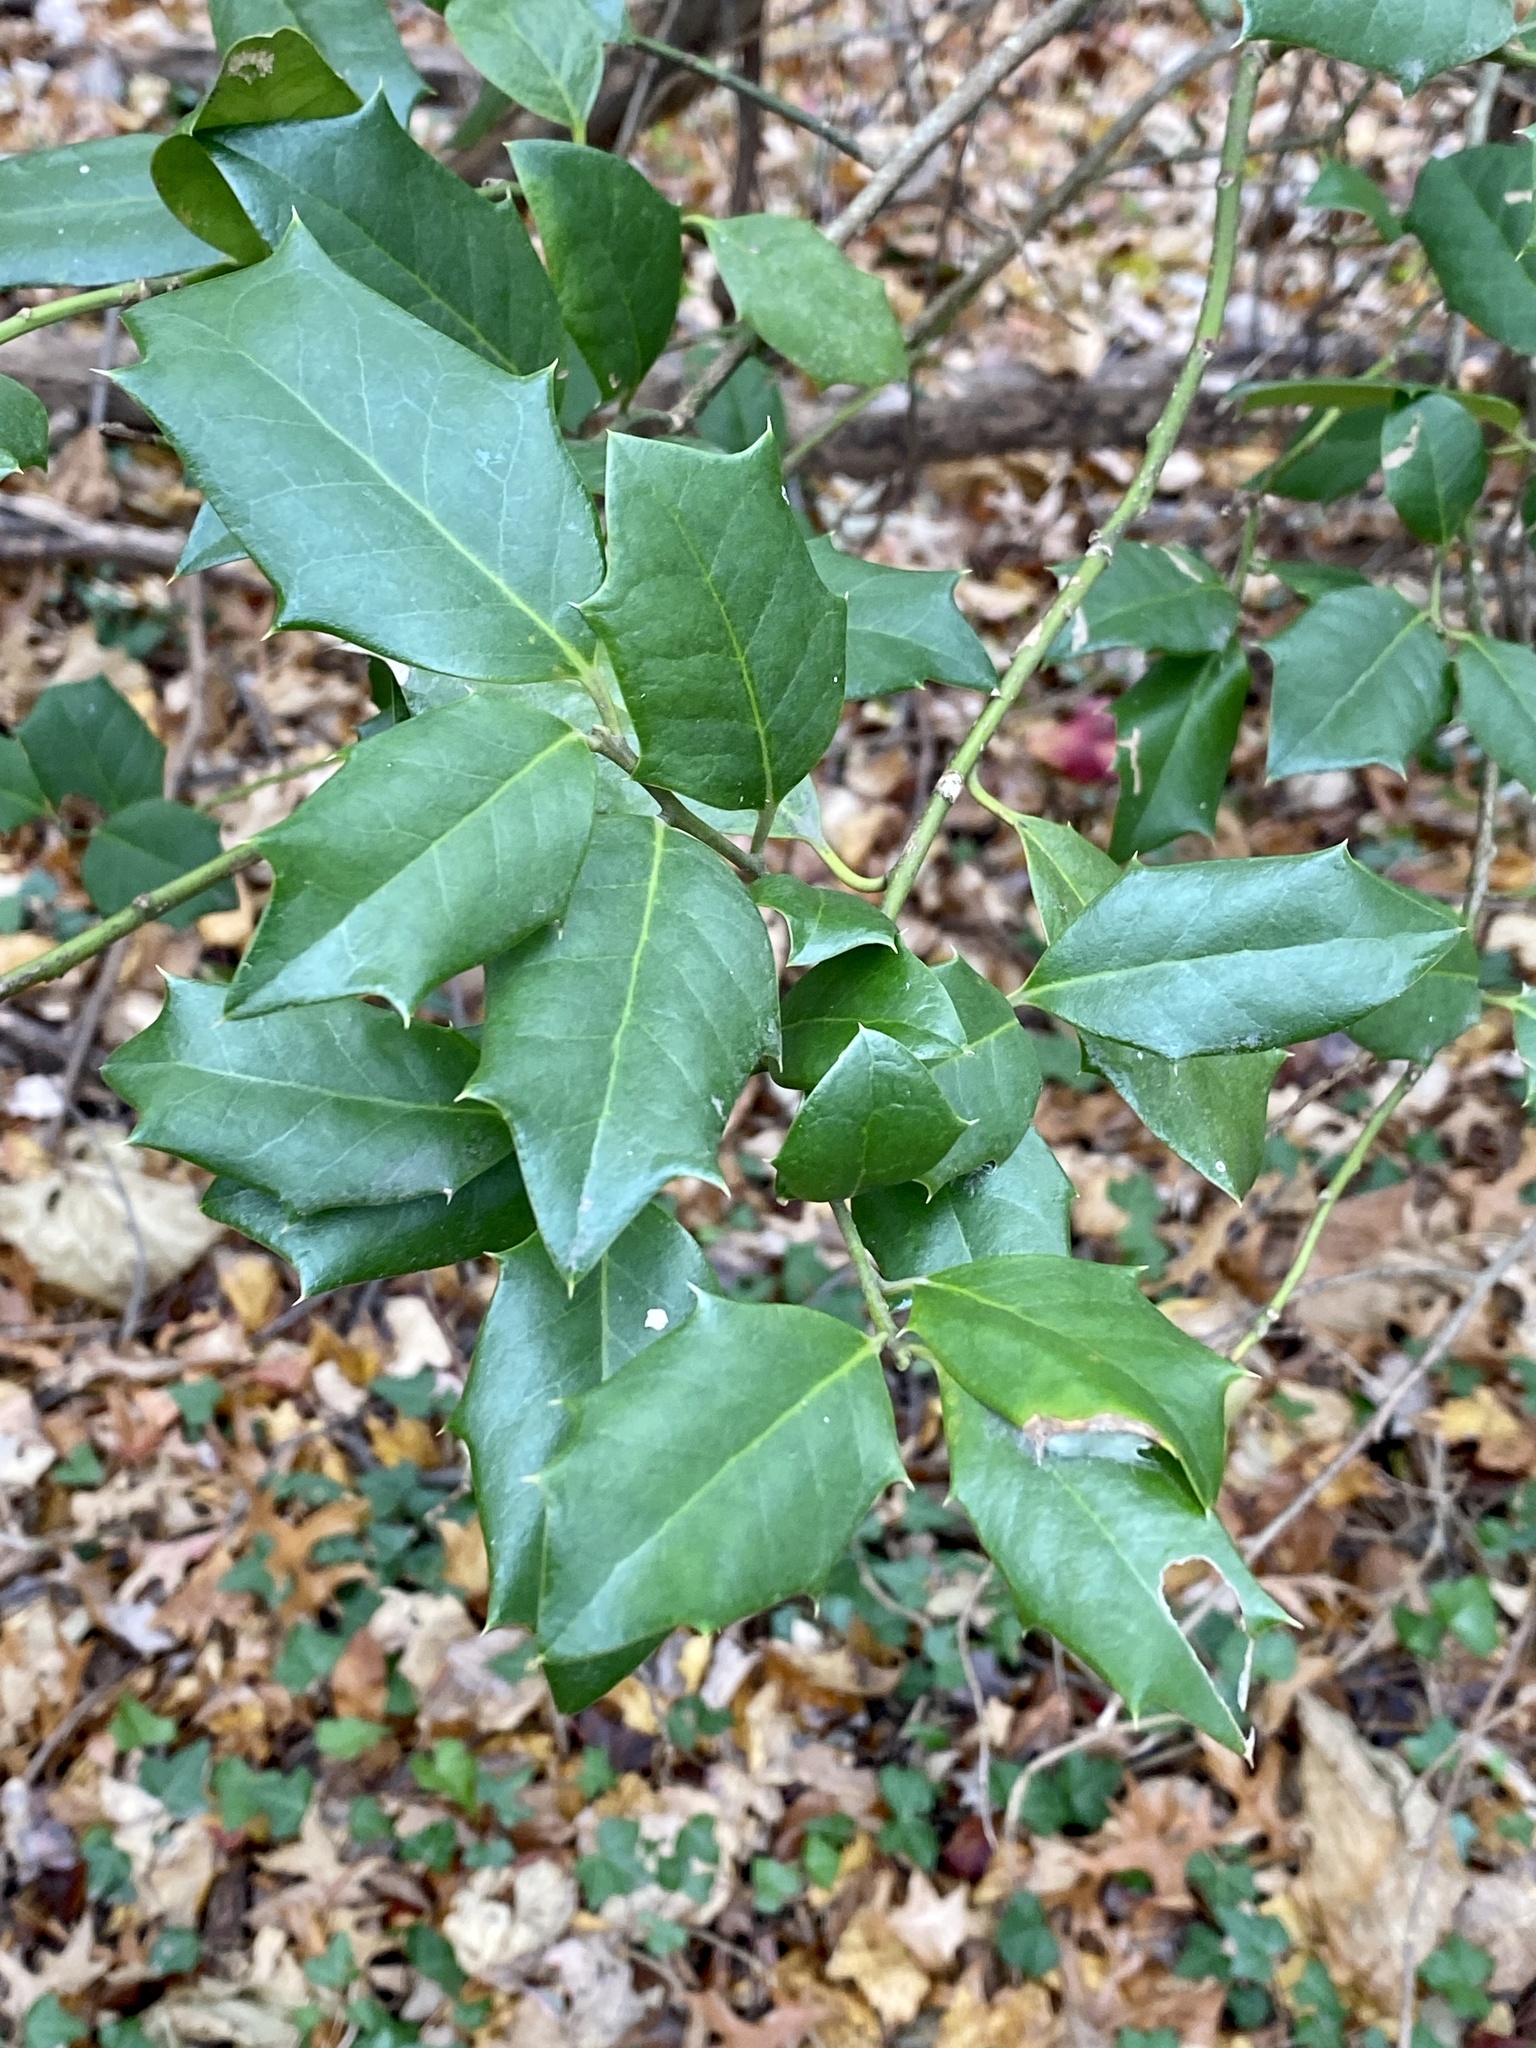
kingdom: Plantae
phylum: Tracheophyta
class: Magnoliopsida
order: Aquifoliales
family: Aquifoliaceae
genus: Ilex
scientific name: Ilex opaca
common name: American holly
